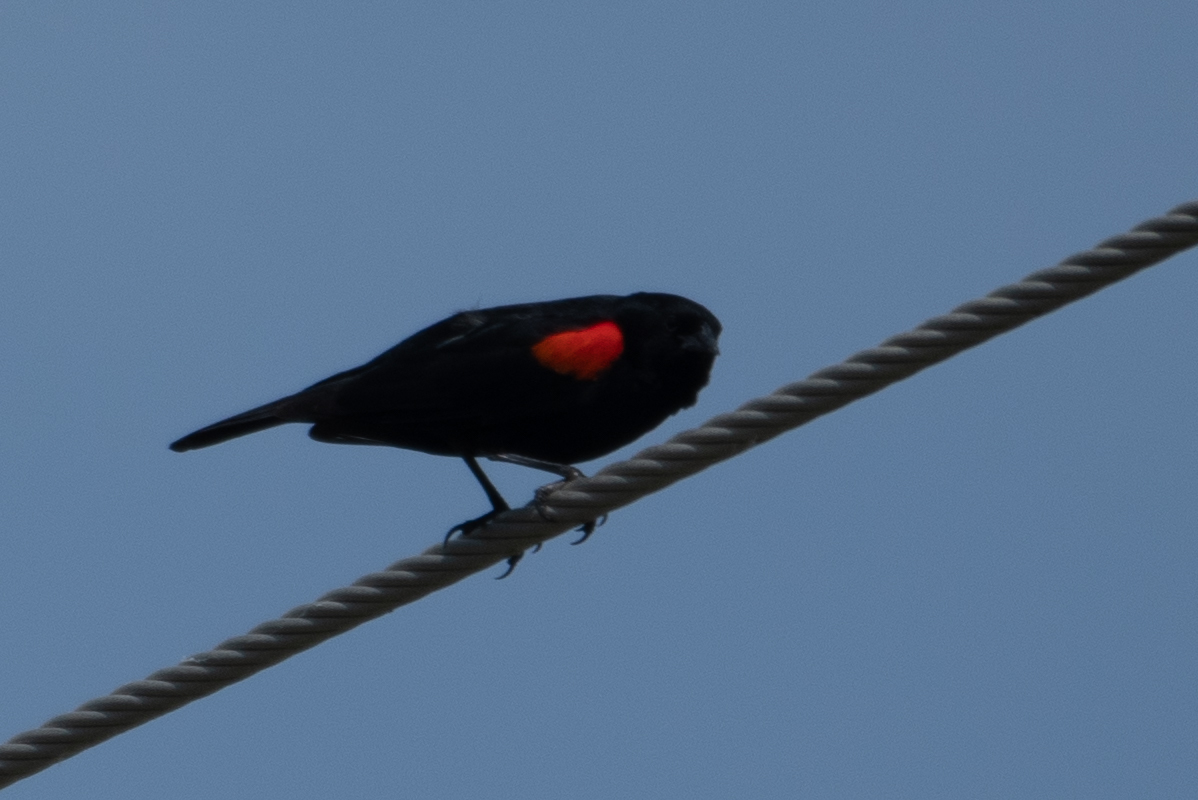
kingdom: Animalia
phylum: Chordata
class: Aves
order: Passeriformes
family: Icteridae
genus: Agelaius
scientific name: Agelaius phoeniceus
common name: Red-winged blackbird
